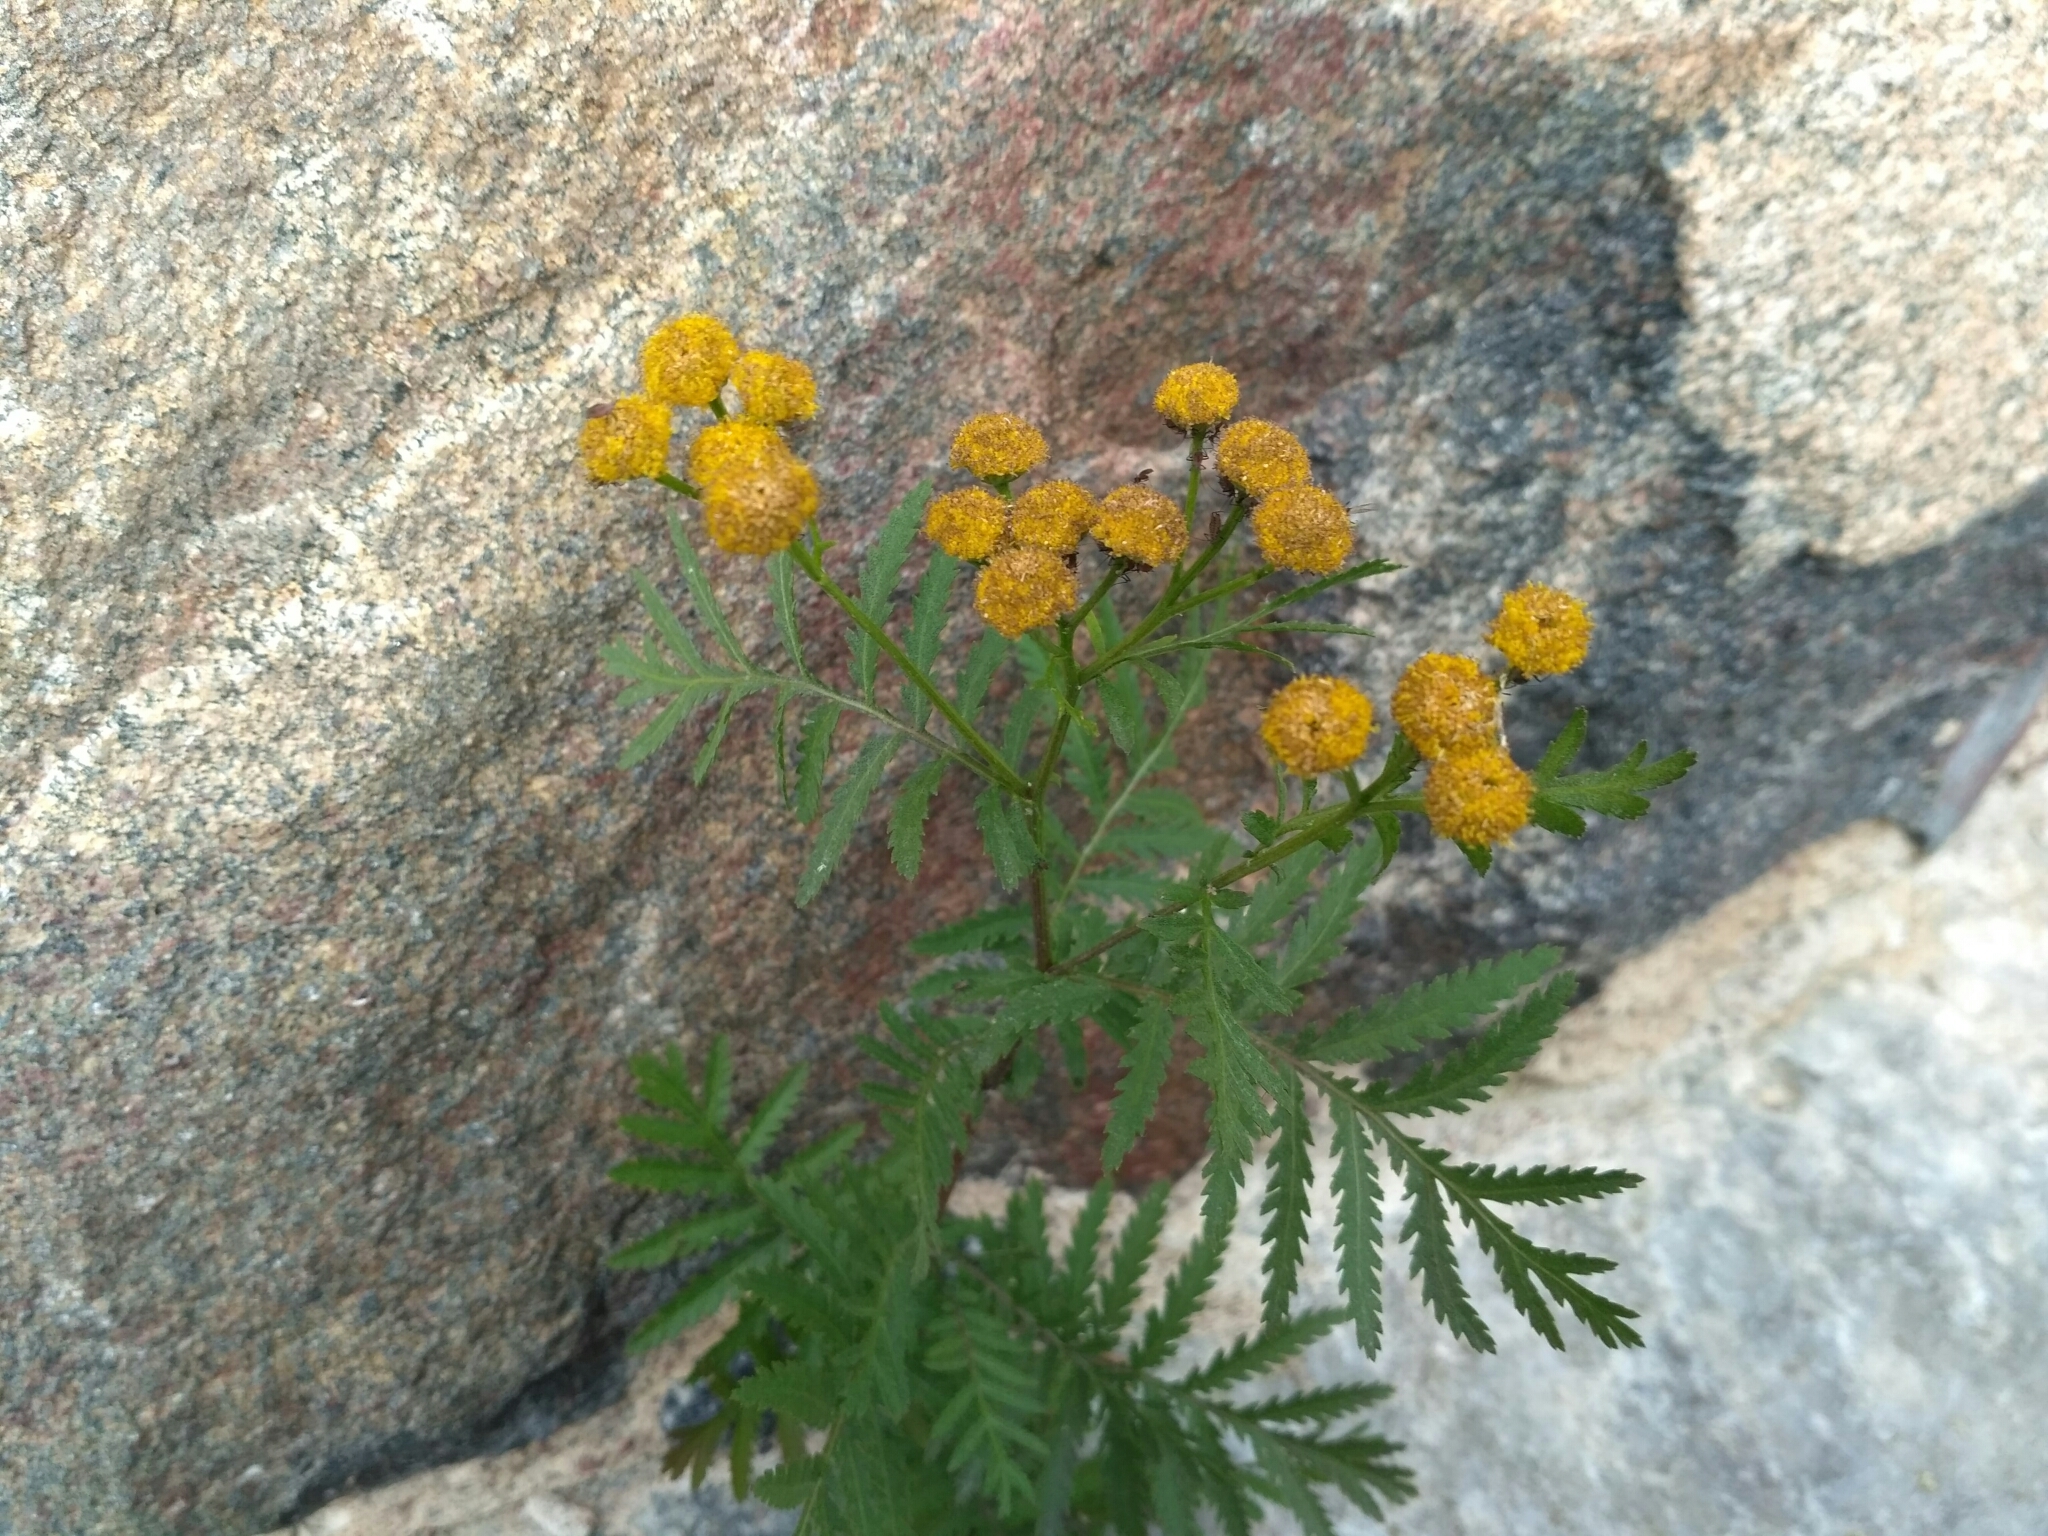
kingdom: Plantae
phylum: Tracheophyta
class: Magnoliopsida
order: Asterales
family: Asteraceae
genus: Tanacetum
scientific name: Tanacetum vulgare
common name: Common tansy
